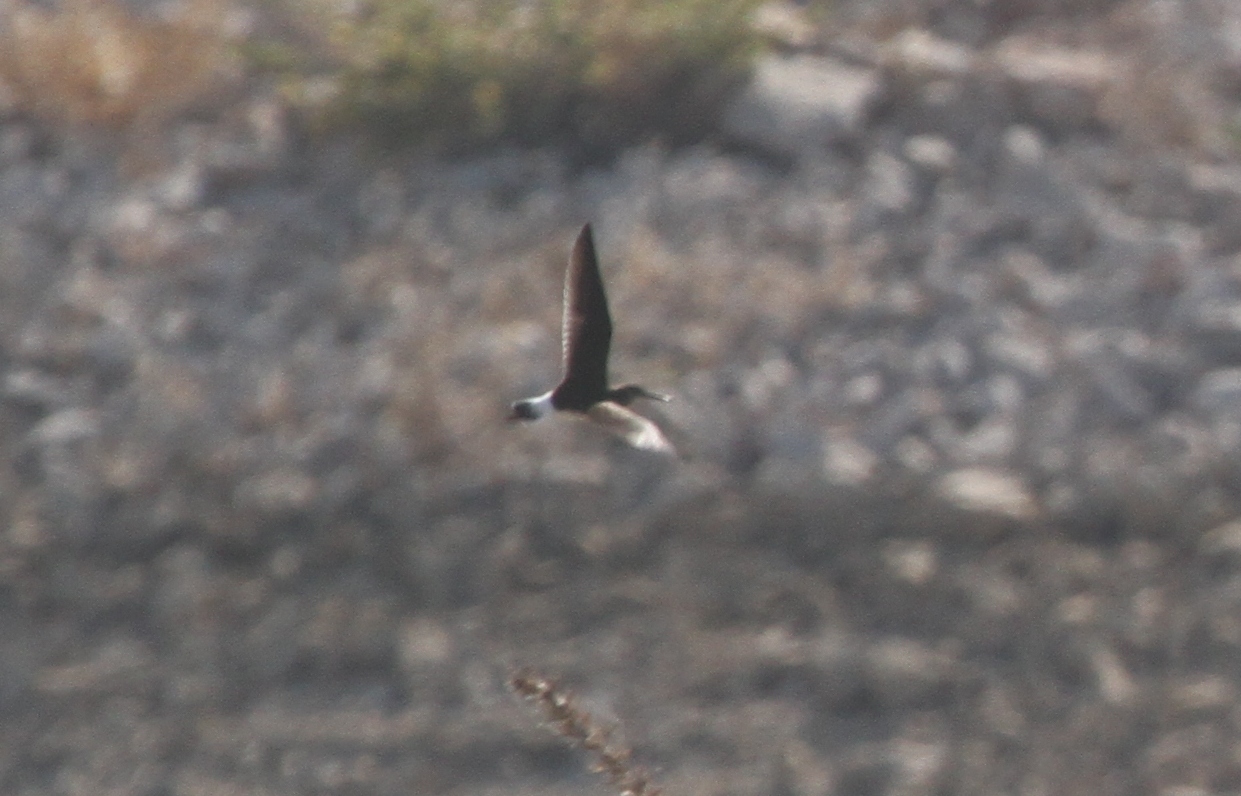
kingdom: Animalia
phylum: Chordata
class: Aves
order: Charadriiformes
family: Scolopacidae
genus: Tringa
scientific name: Tringa ochropus
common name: Green sandpiper
